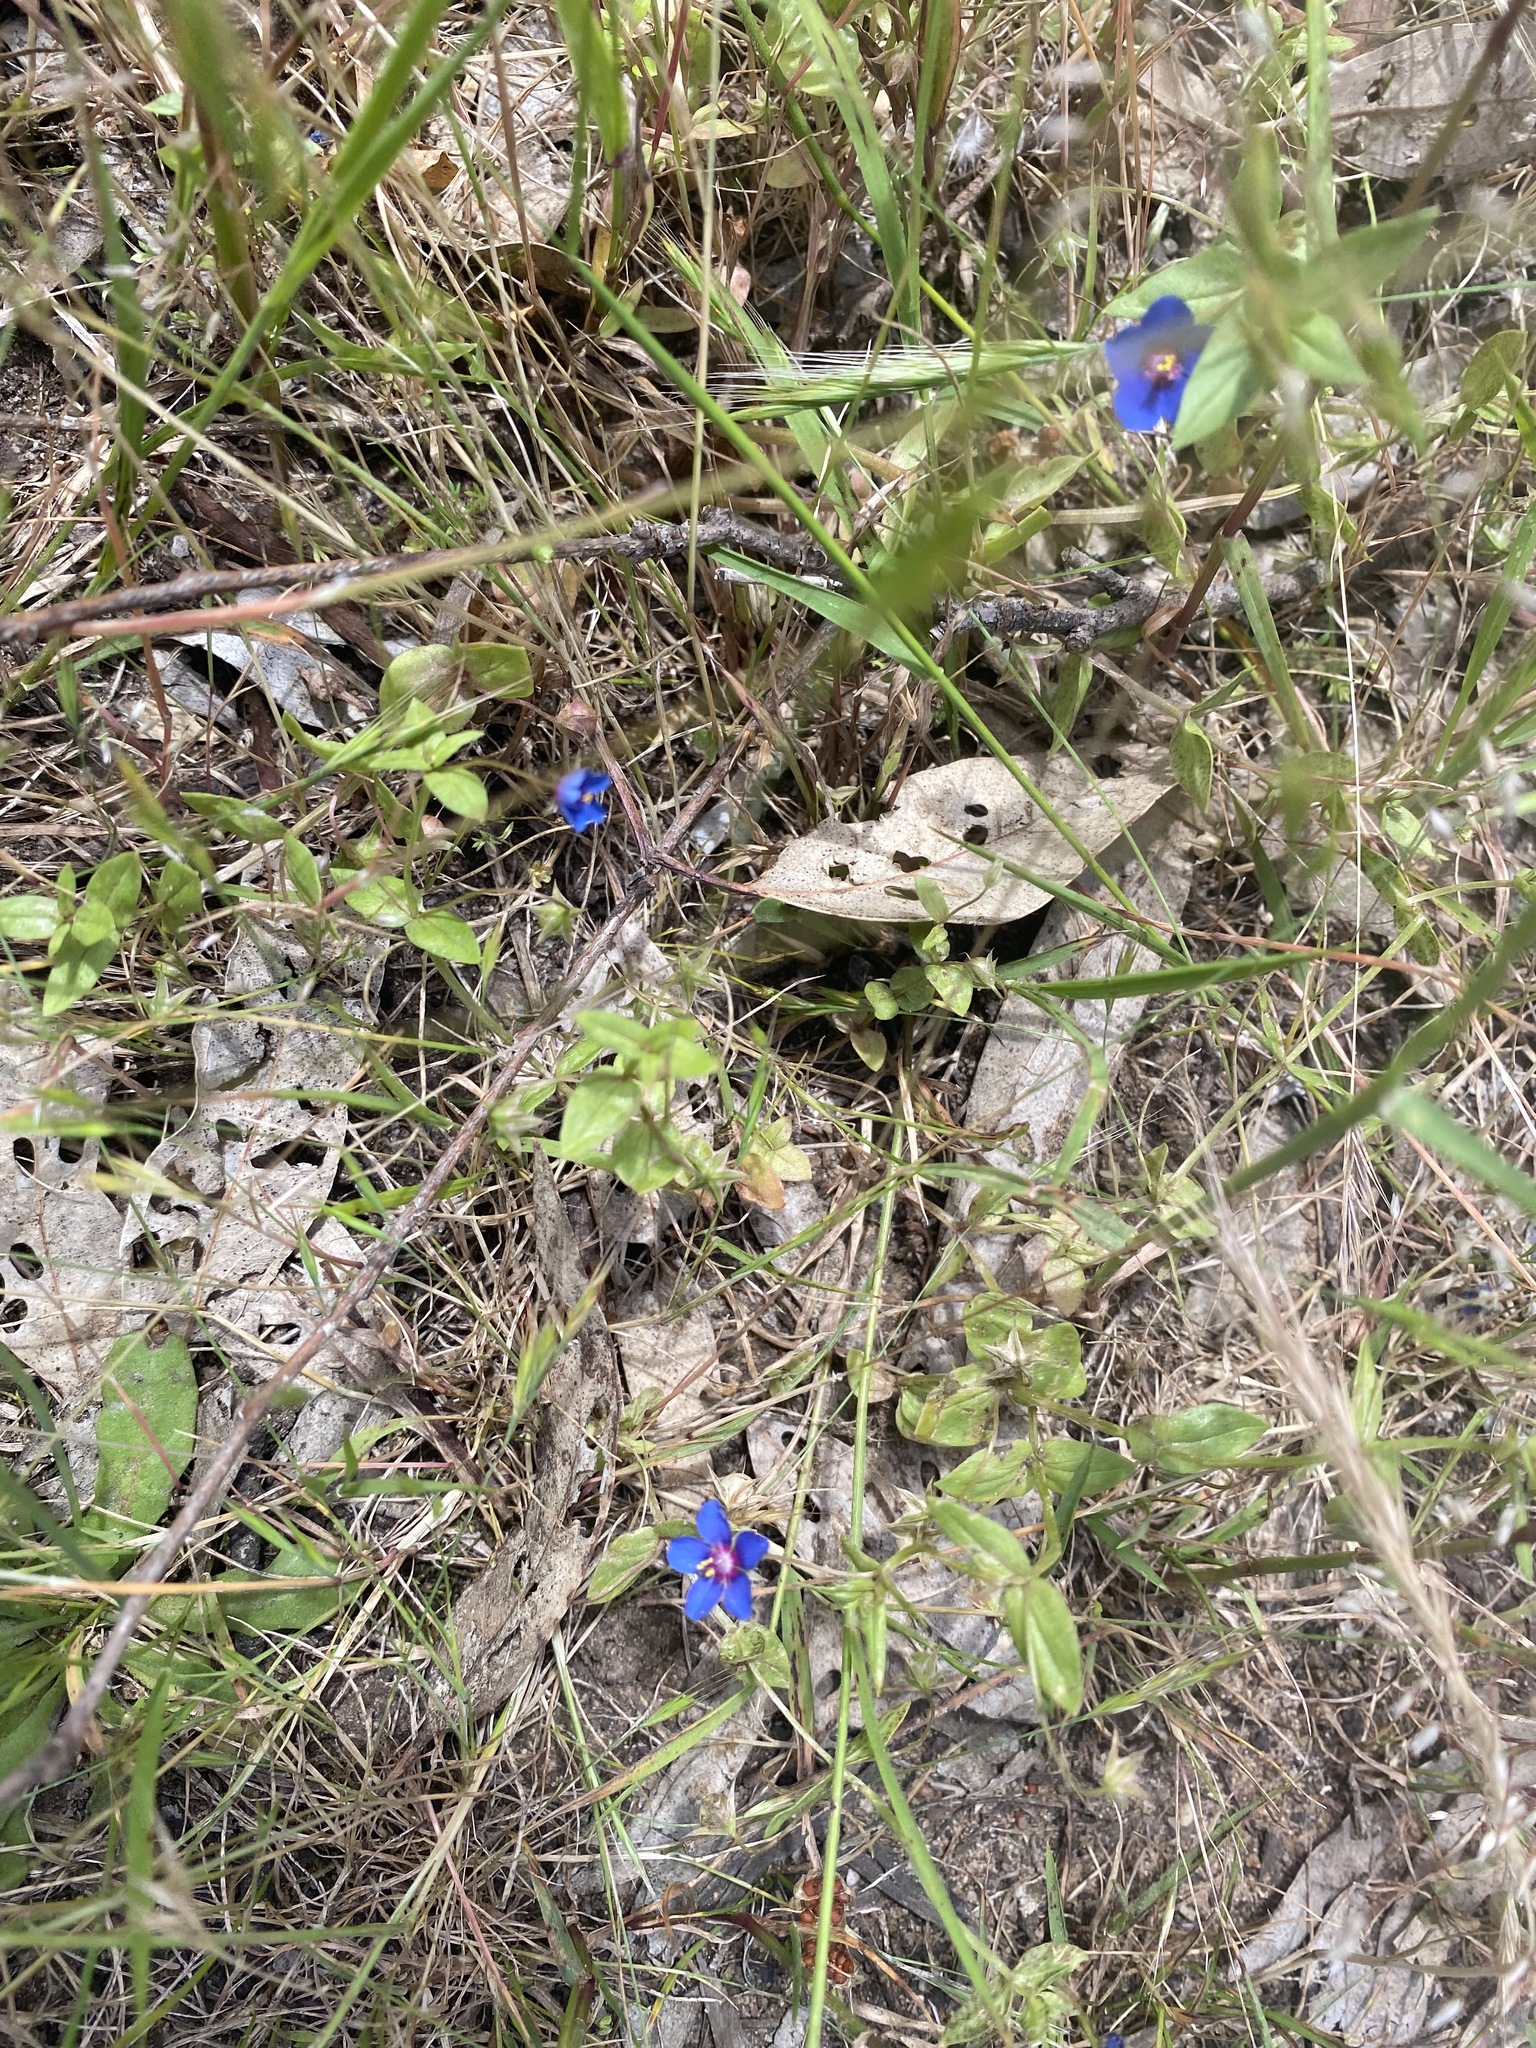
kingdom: Plantae
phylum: Tracheophyta
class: Magnoliopsida
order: Ericales
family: Primulaceae
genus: Lysimachia
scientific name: Lysimachia loeflingii
